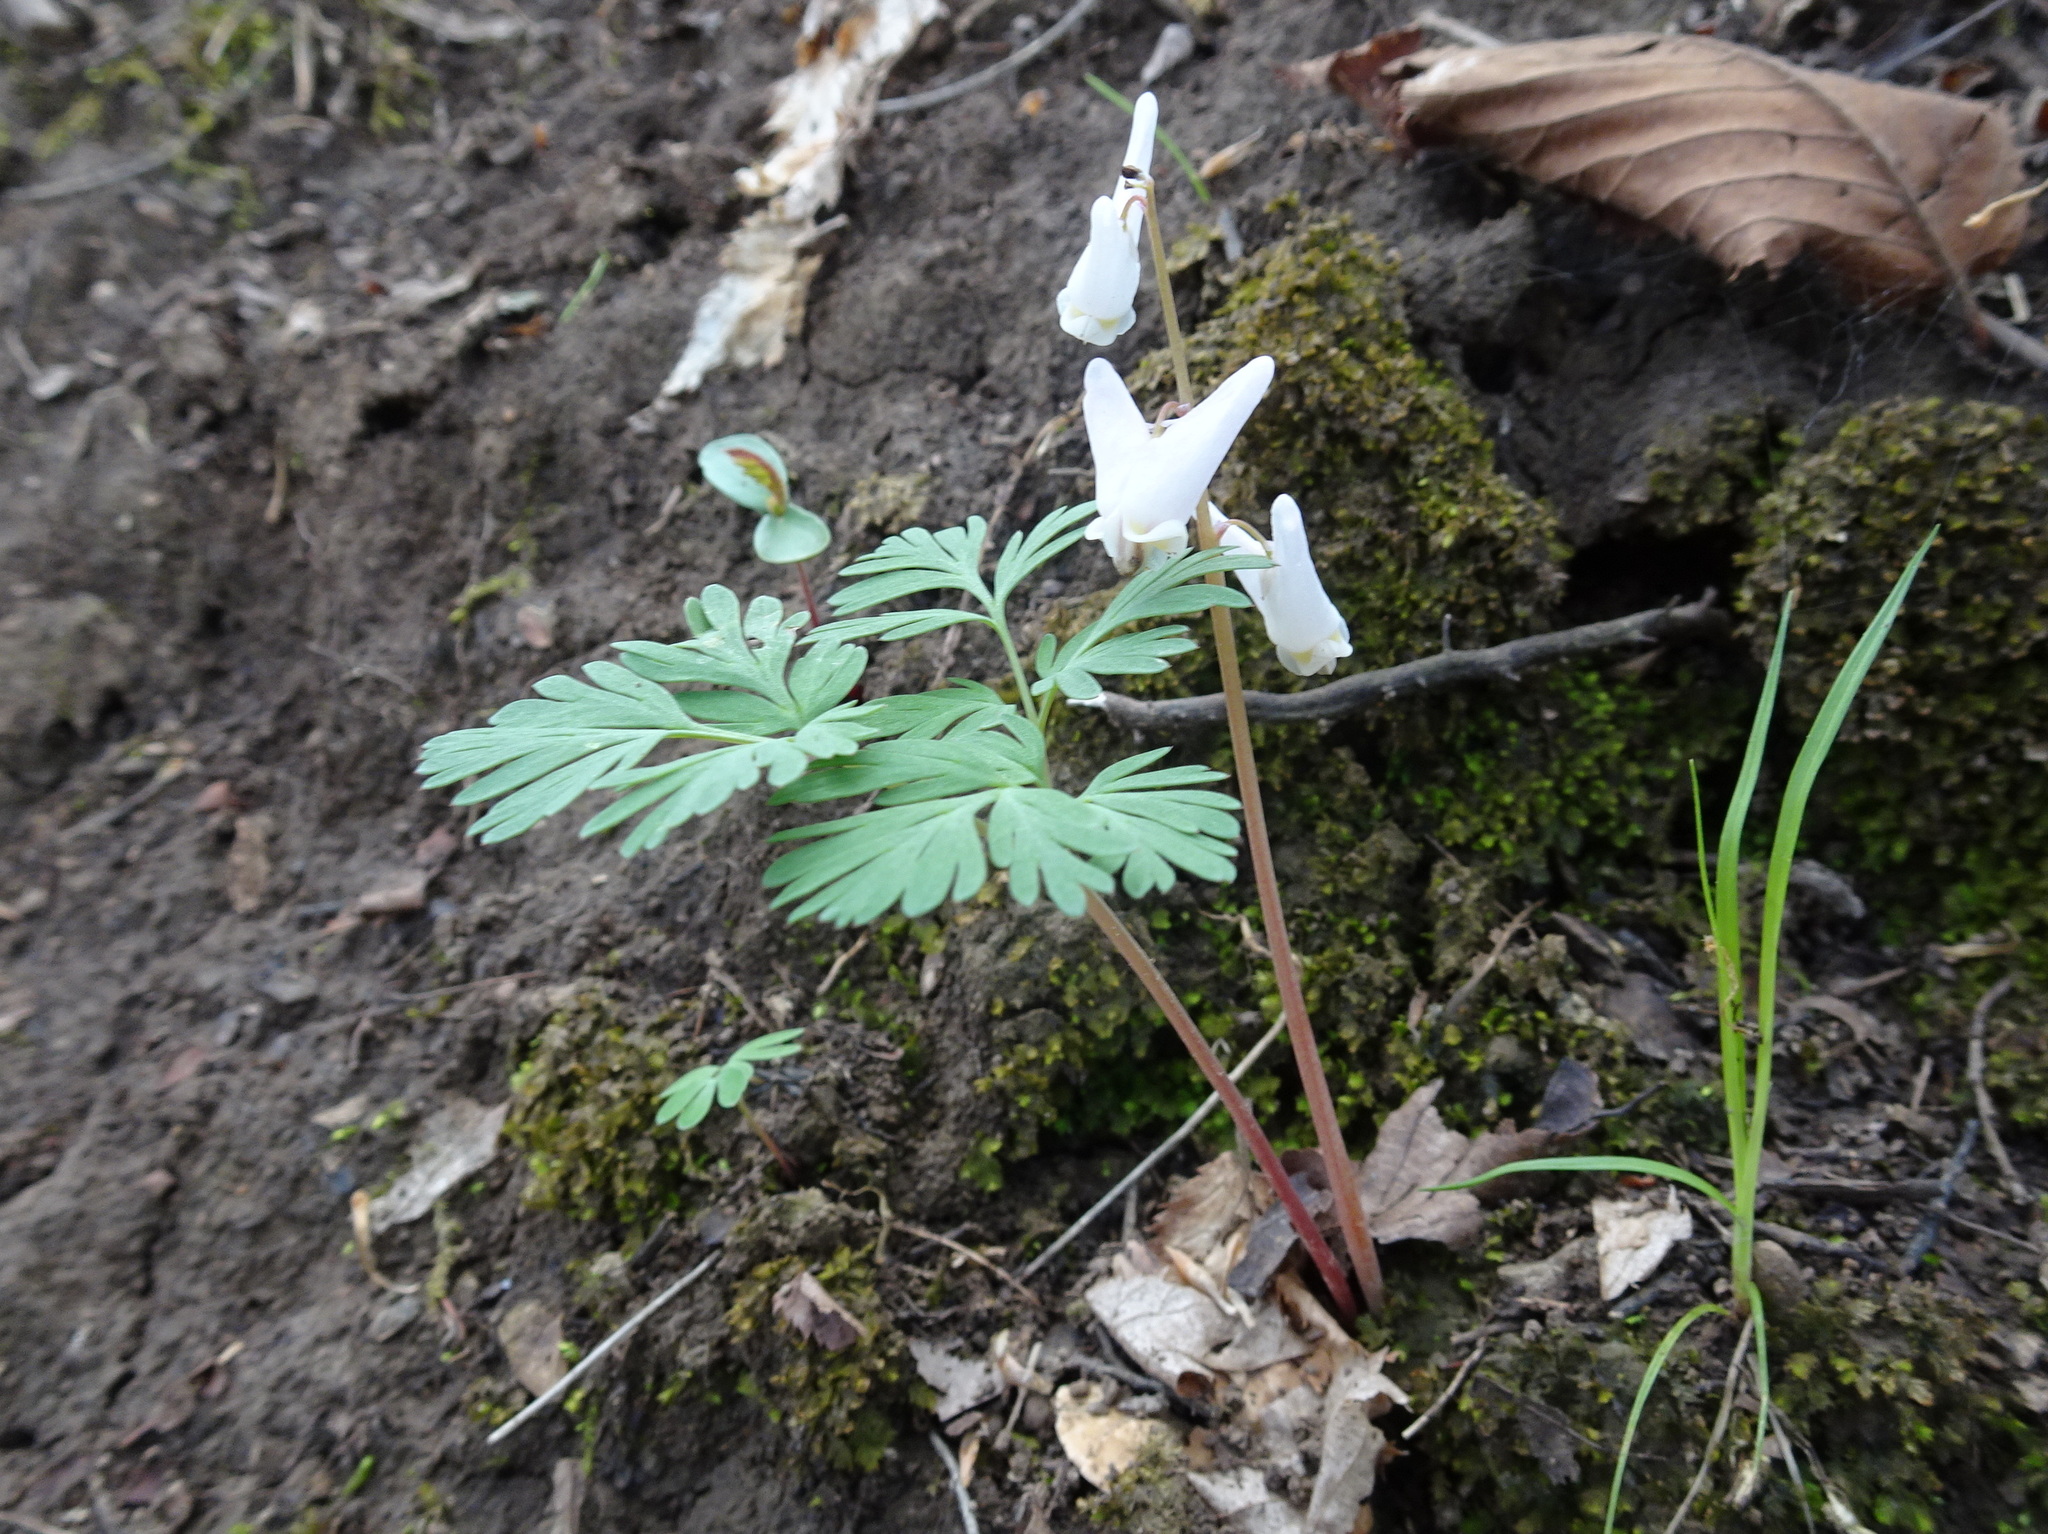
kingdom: Plantae
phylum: Tracheophyta
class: Magnoliopsida
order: Ranunculales
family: Papaveraceae
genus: Dicentra
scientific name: Dicentra cucullaria
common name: Dutchman's breeches
